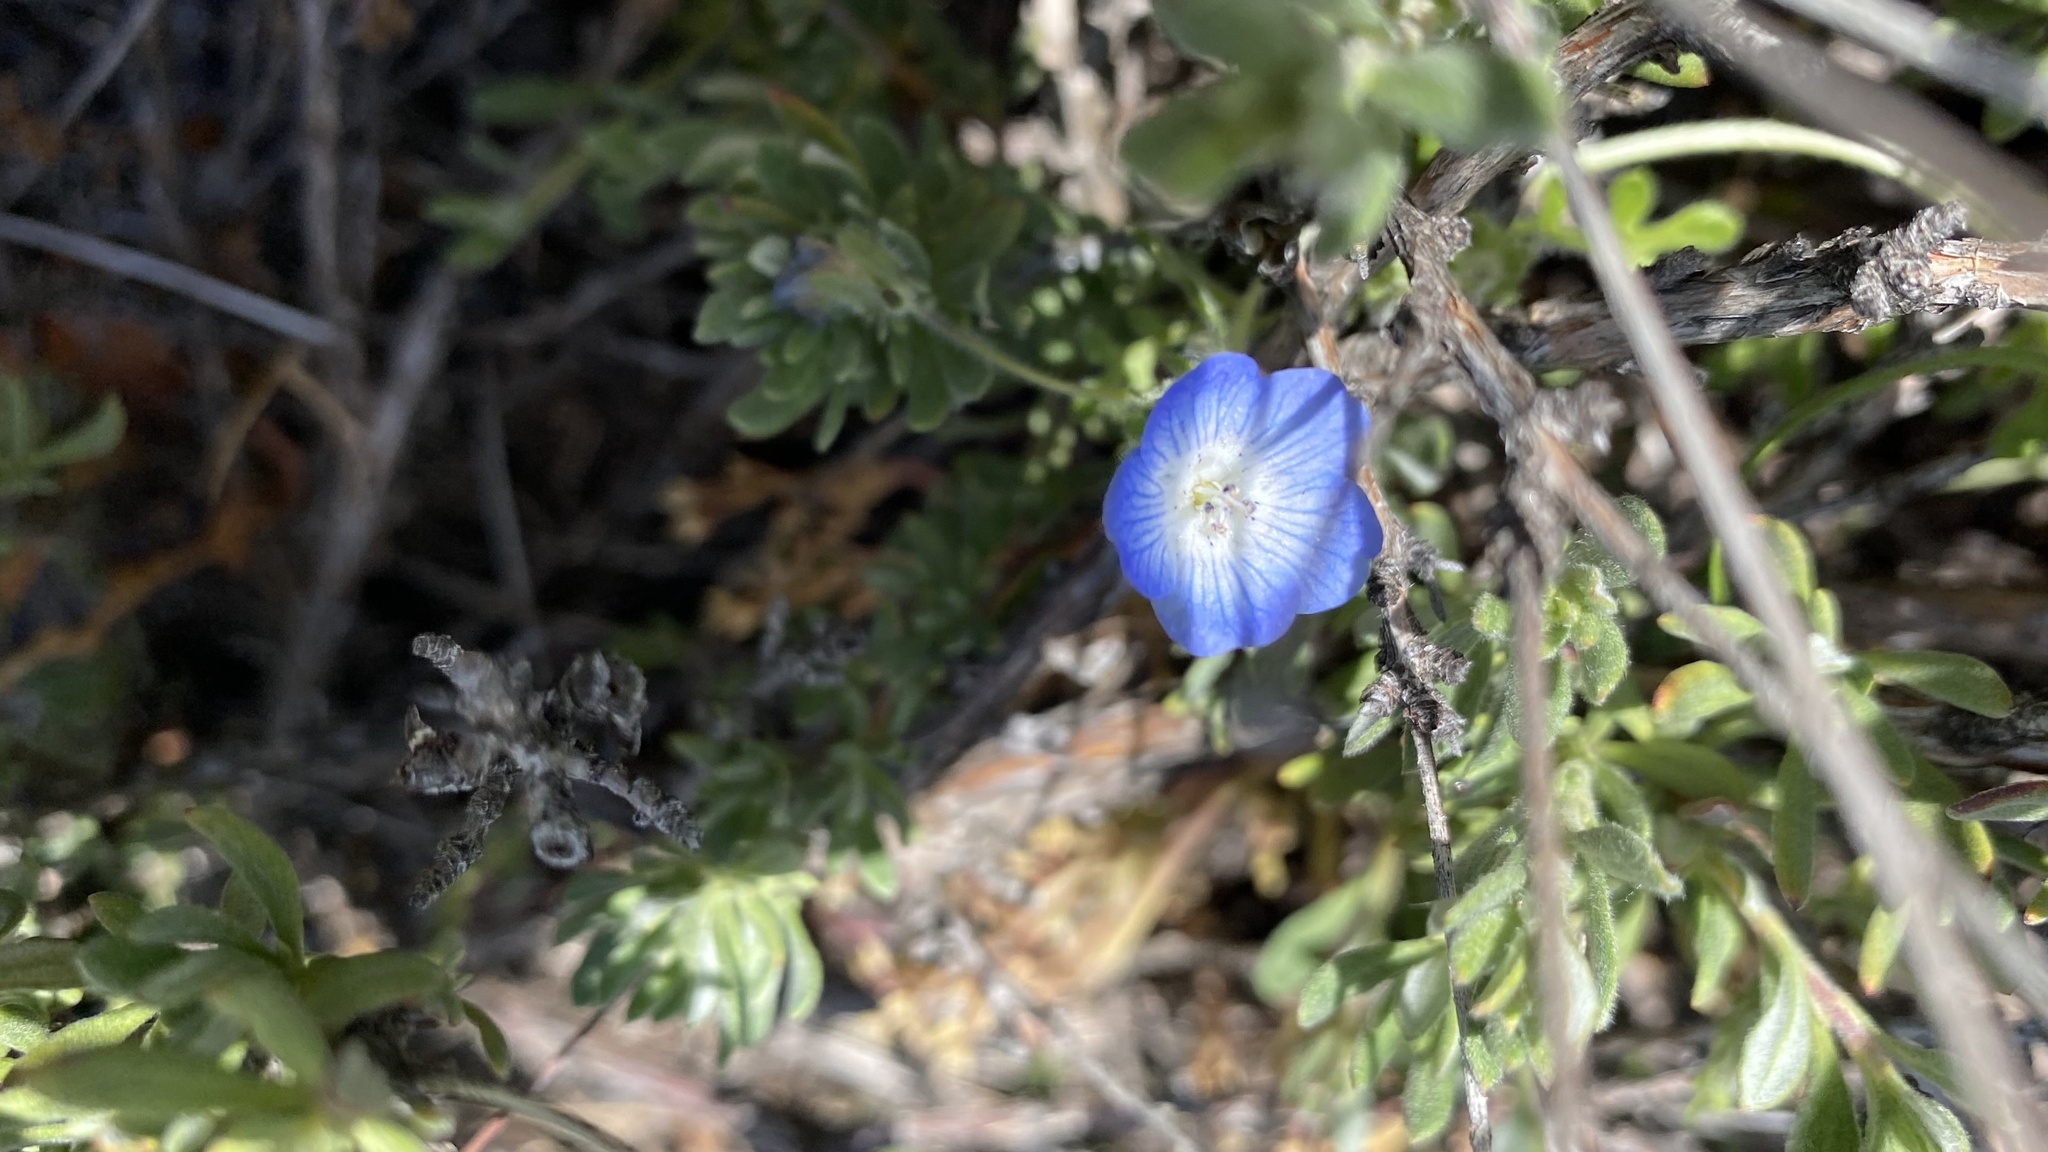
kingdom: Plantae
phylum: Tracheophyta
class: Magnoliopsida
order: Boraginales
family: Hydrophyllaceae
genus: Nemophila
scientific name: Nemophila menziesii
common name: Baby's-blue-eyes
